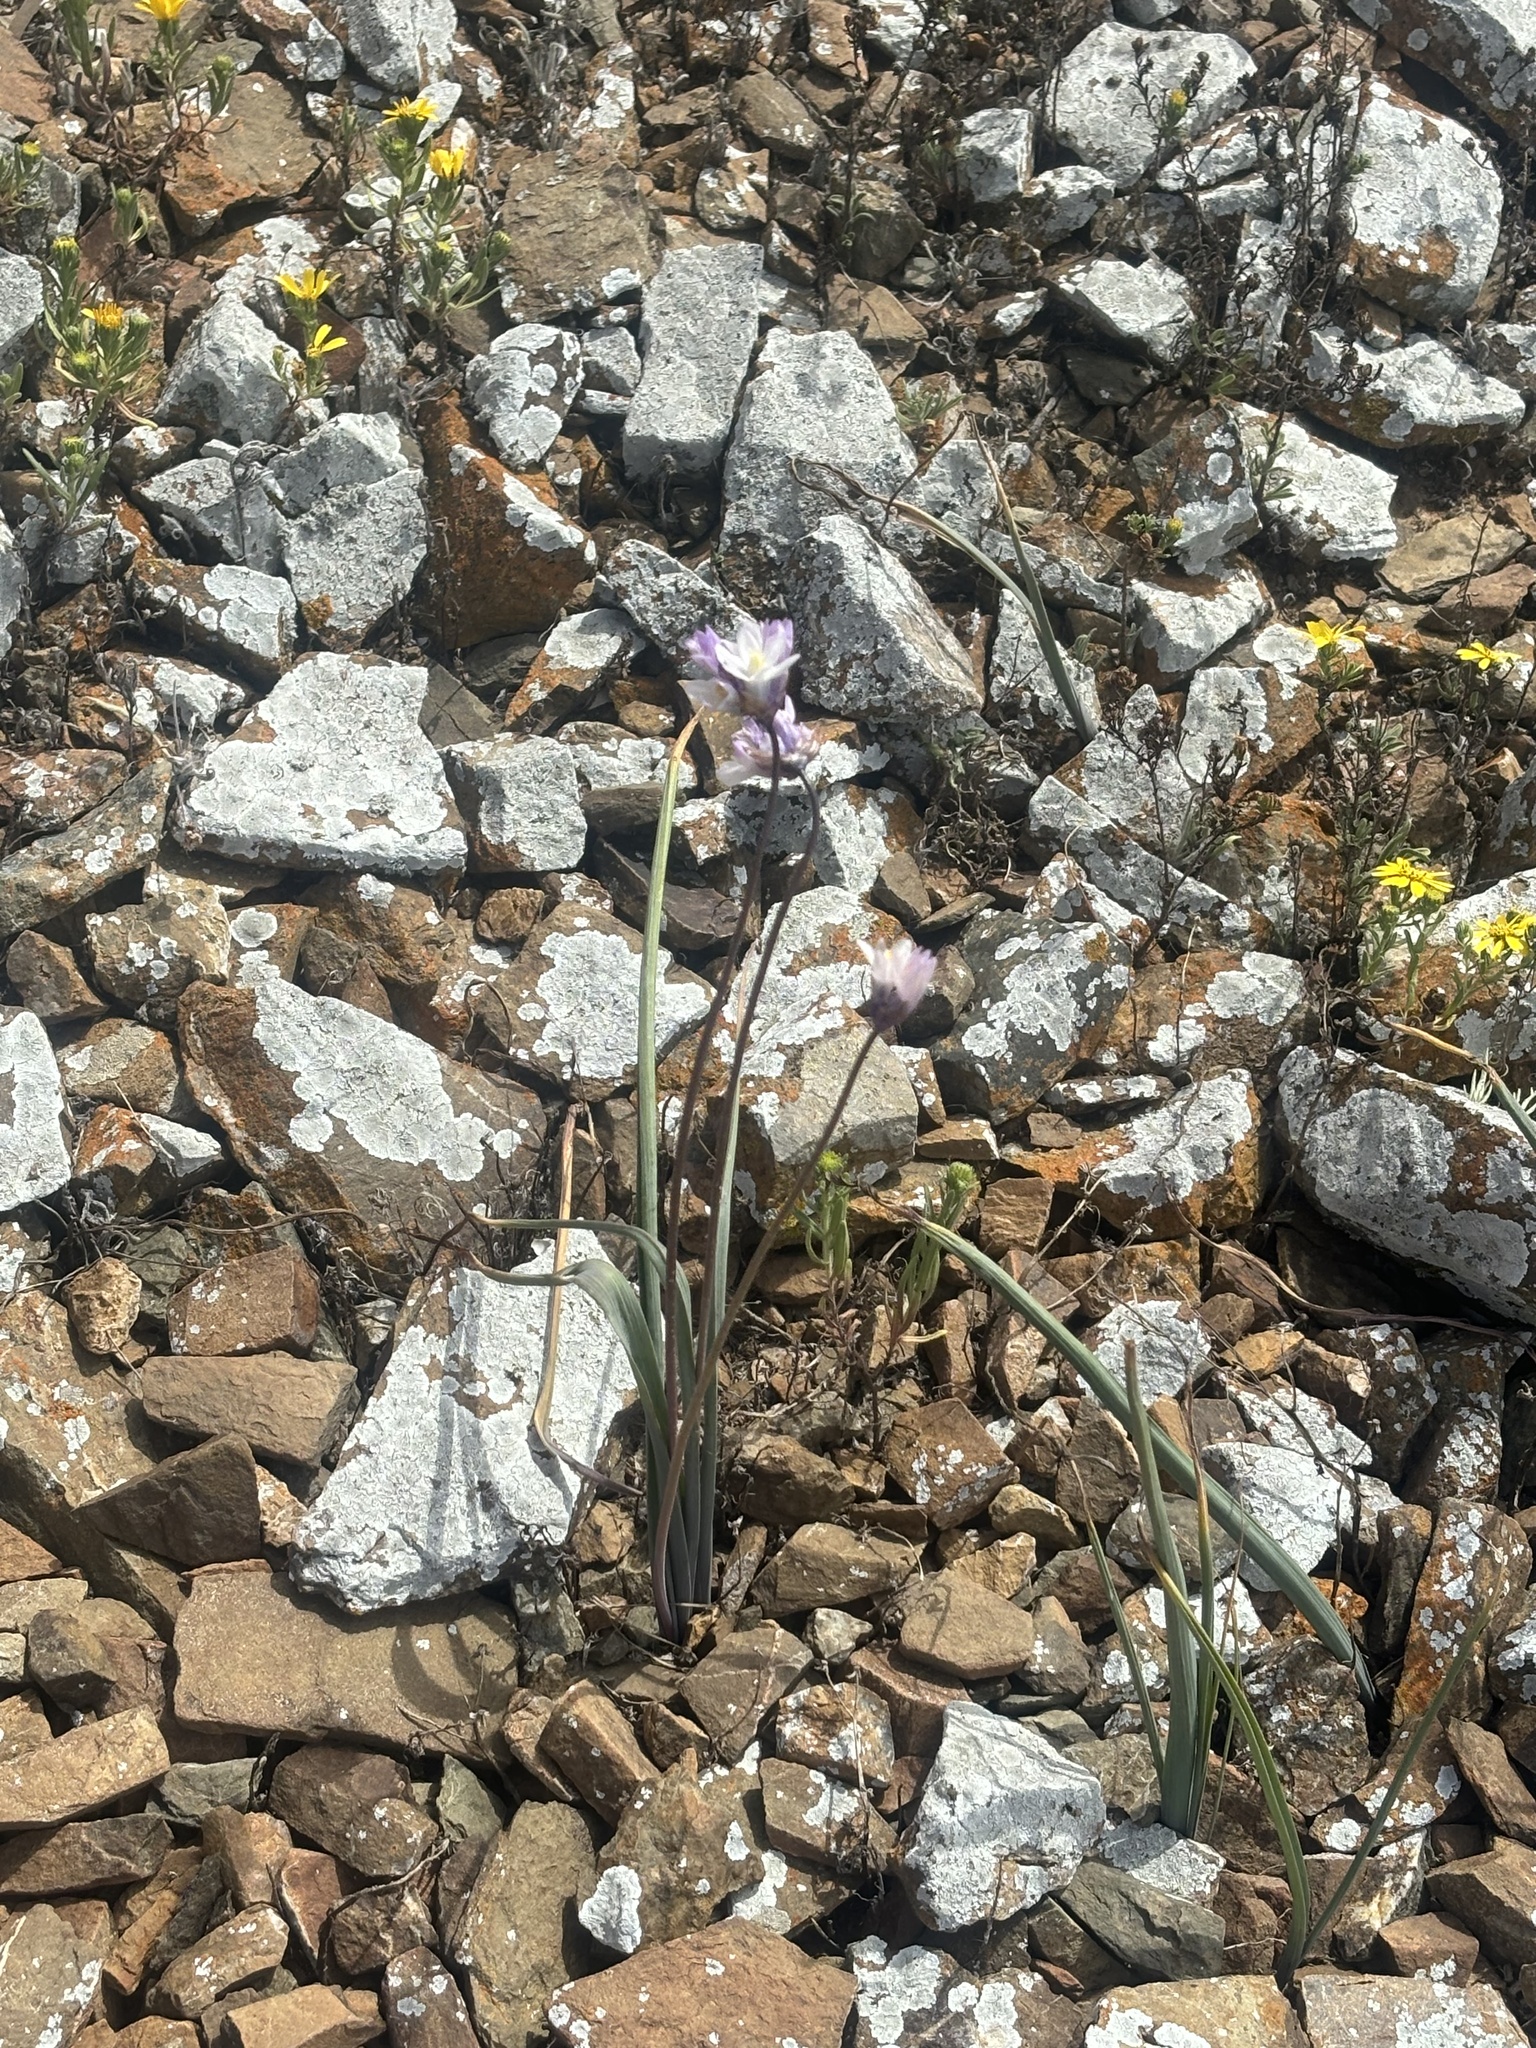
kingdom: Plantae
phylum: Tracheophyta
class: Liliopsida
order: Asparagales
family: Asparagaceae
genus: Dipterostemon
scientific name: Dipterostemon capitatus
